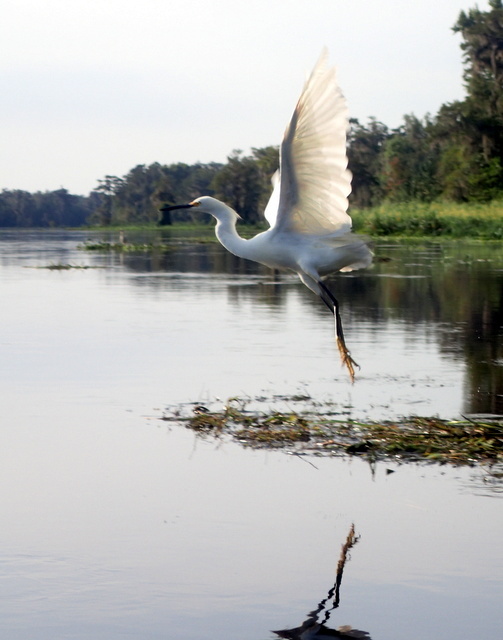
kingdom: Animalia
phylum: Chordata
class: Aves
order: Pelecaniformes
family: Ardeidae
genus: Egretta
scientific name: Egretta thula
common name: Snowy egret
